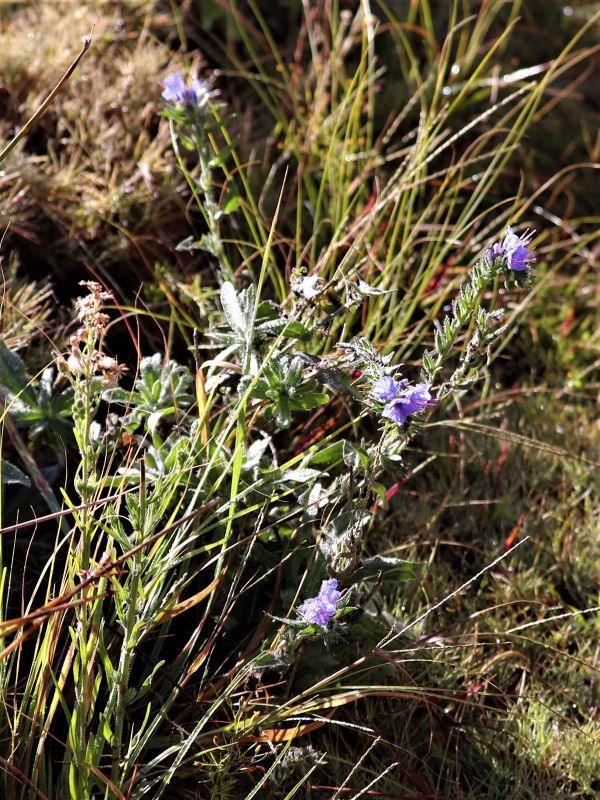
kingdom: Plantae
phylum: Tracheophyta
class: Magnoliopsida
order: Boraginales
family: Boraginaceae
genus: Echium
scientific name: Echium vulgare
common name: Common viper's bugloss
